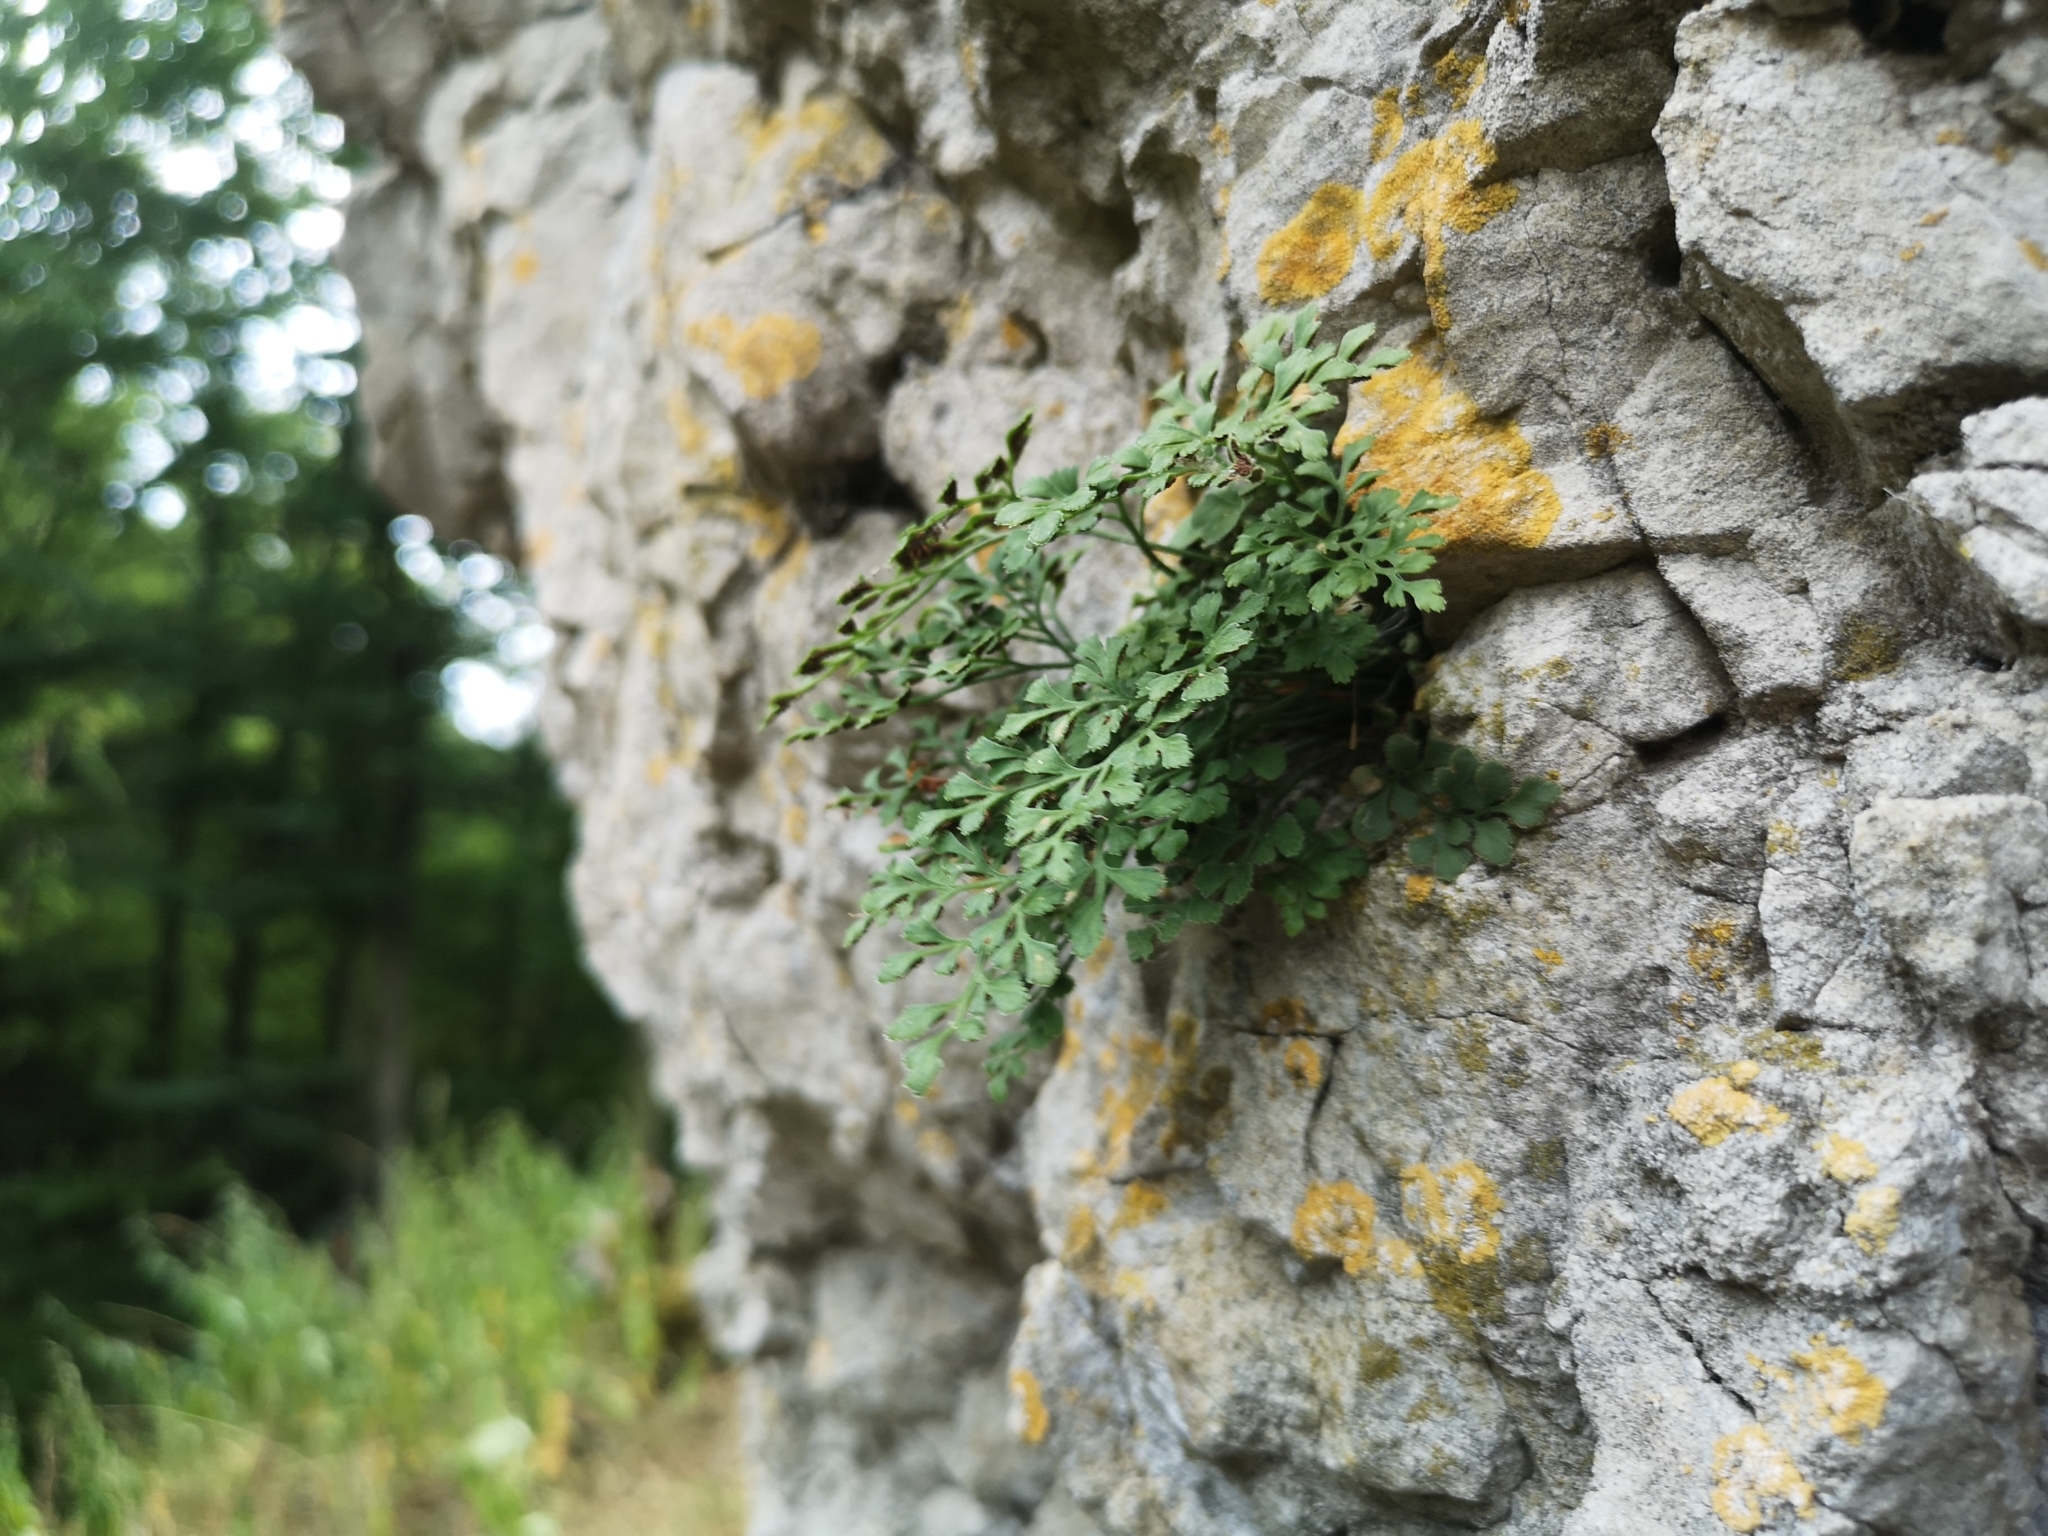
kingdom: Plantae
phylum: Tracheophyta
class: Polypodiopsida
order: Polypodiales
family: Aspleniaceae
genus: Asplenium
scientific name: Asplenium ruta-muraria
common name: Wall-rue
